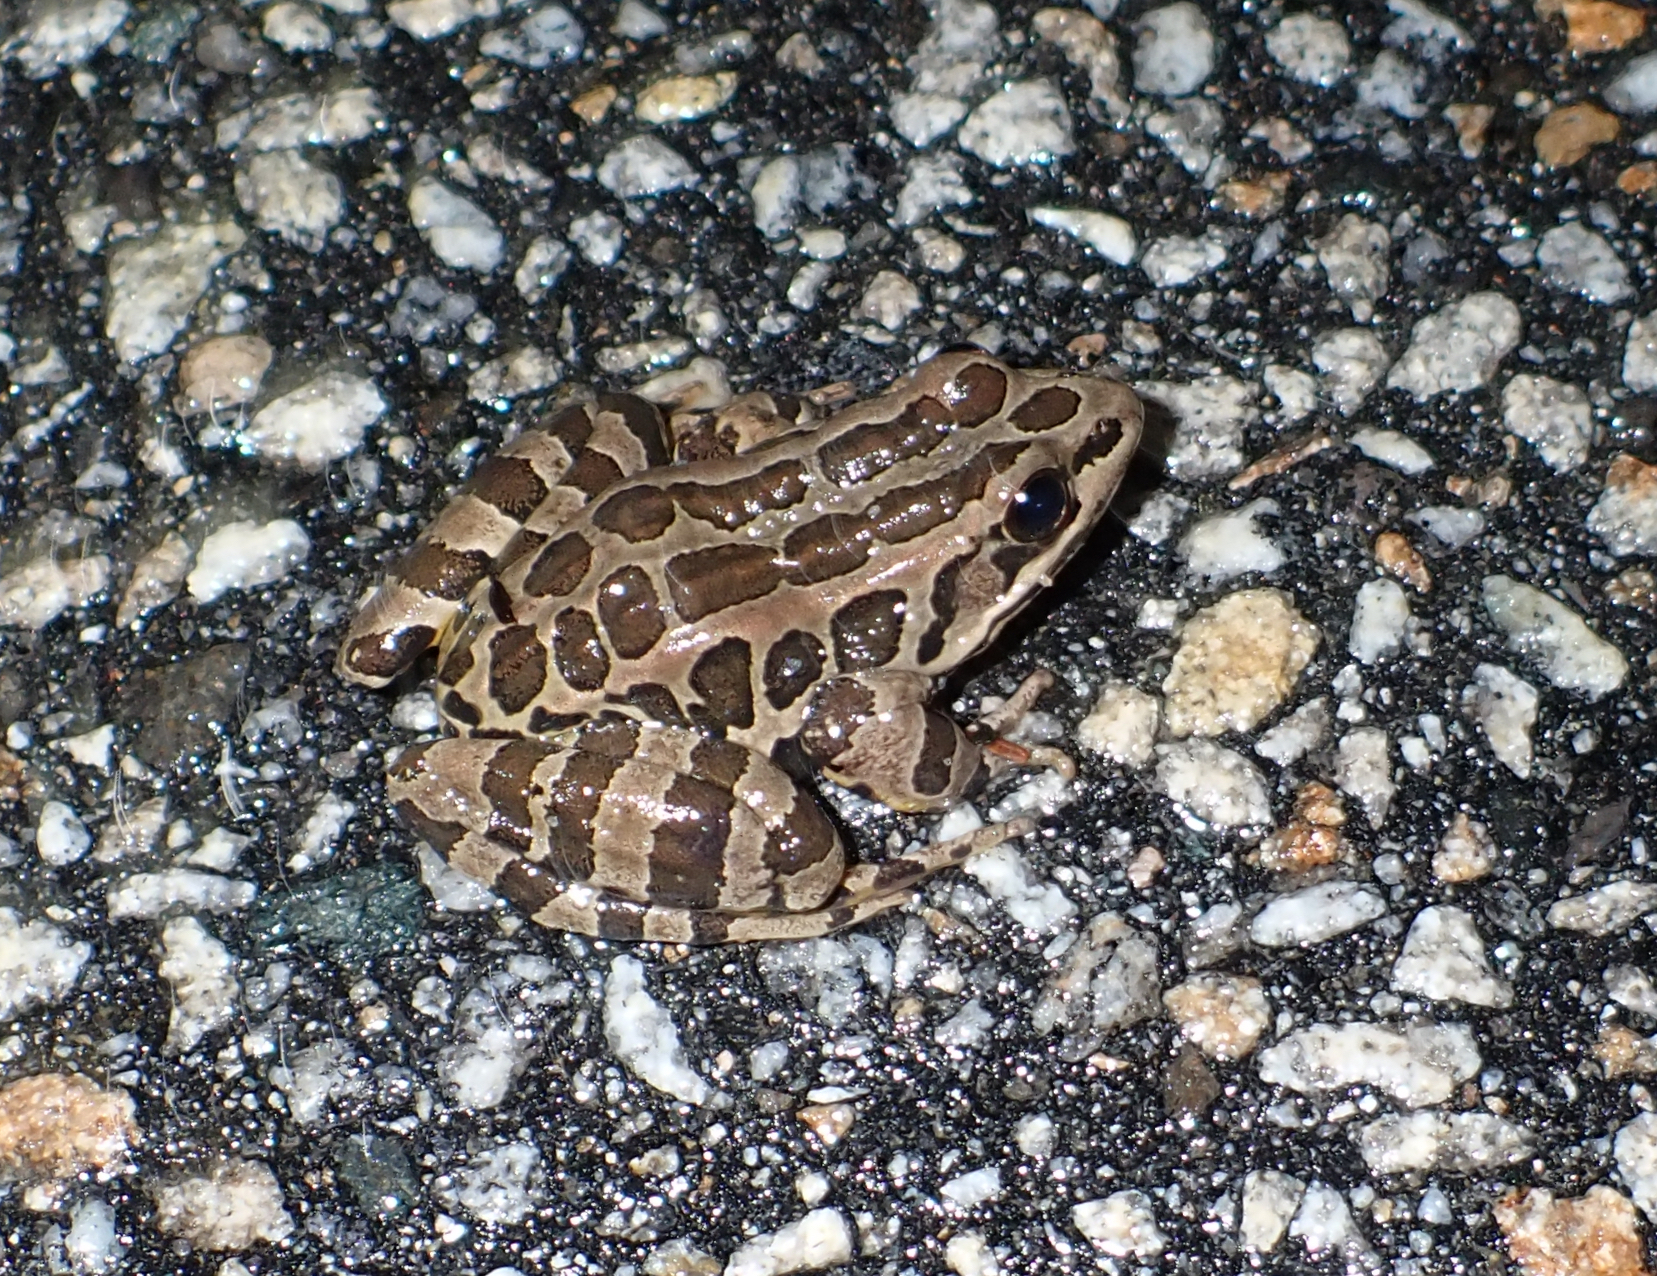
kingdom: Animalia
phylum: Chordata
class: Amphibia
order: Anura
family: Ranidae
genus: Lithobates
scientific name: Lithobates palustris
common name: Pickerel frog
